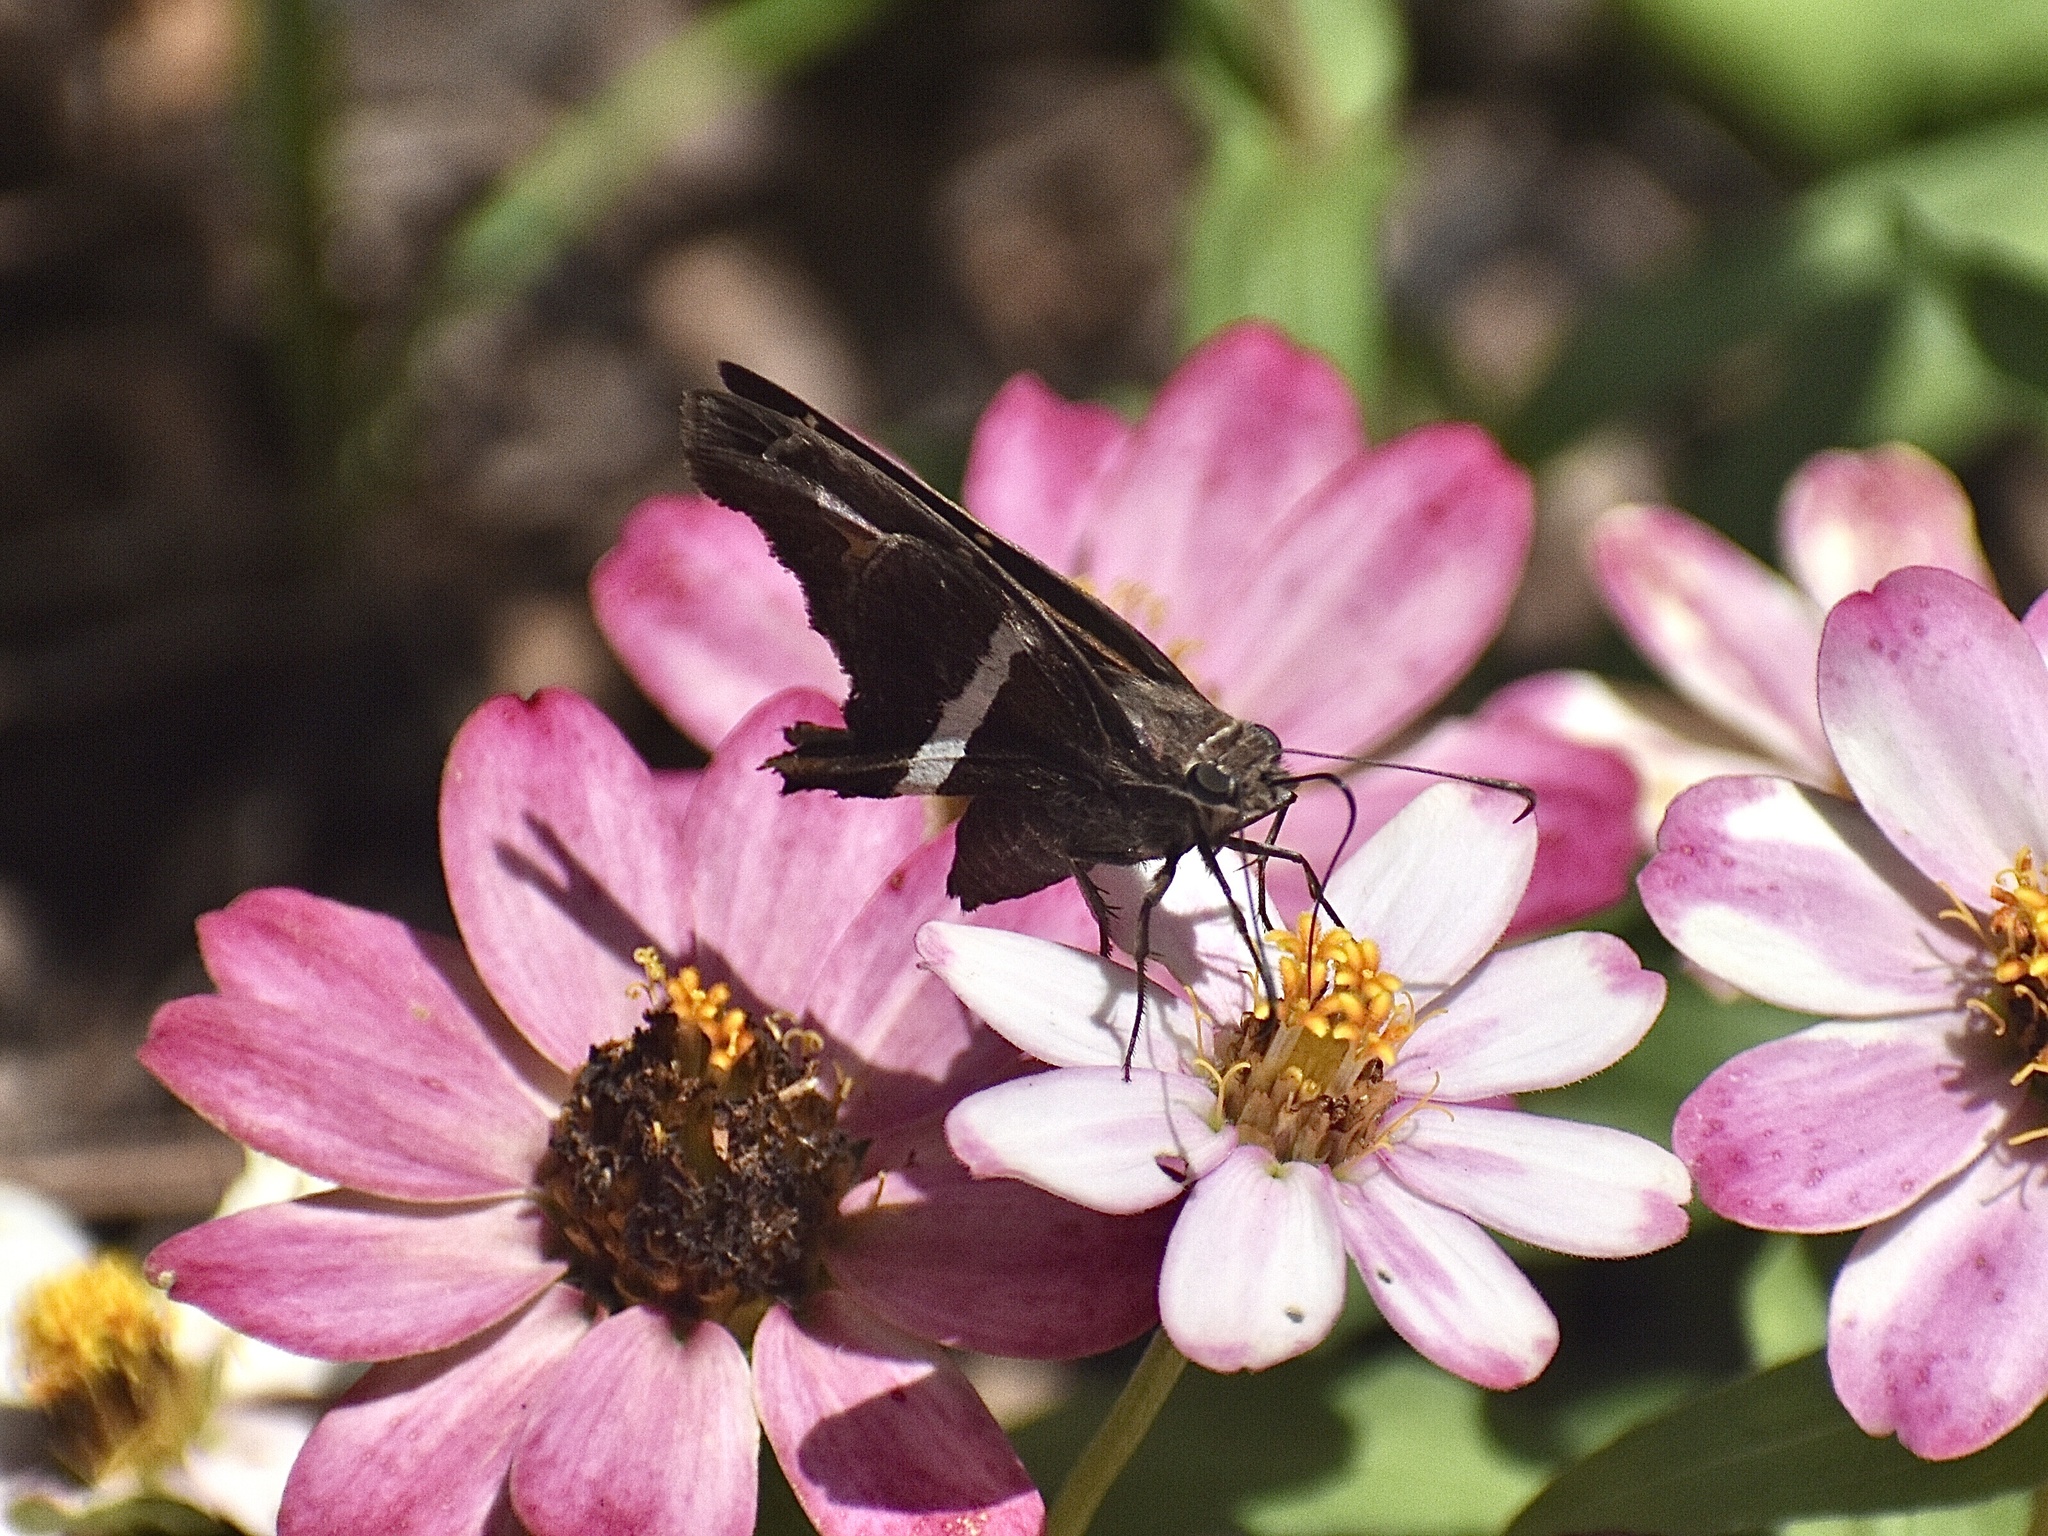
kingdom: Animalia
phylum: Arthropoda
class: Insecta
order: Lepidoptera
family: Hesperiidae
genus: Chioides
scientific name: Chioides catillus
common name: Silverbanded skipper
